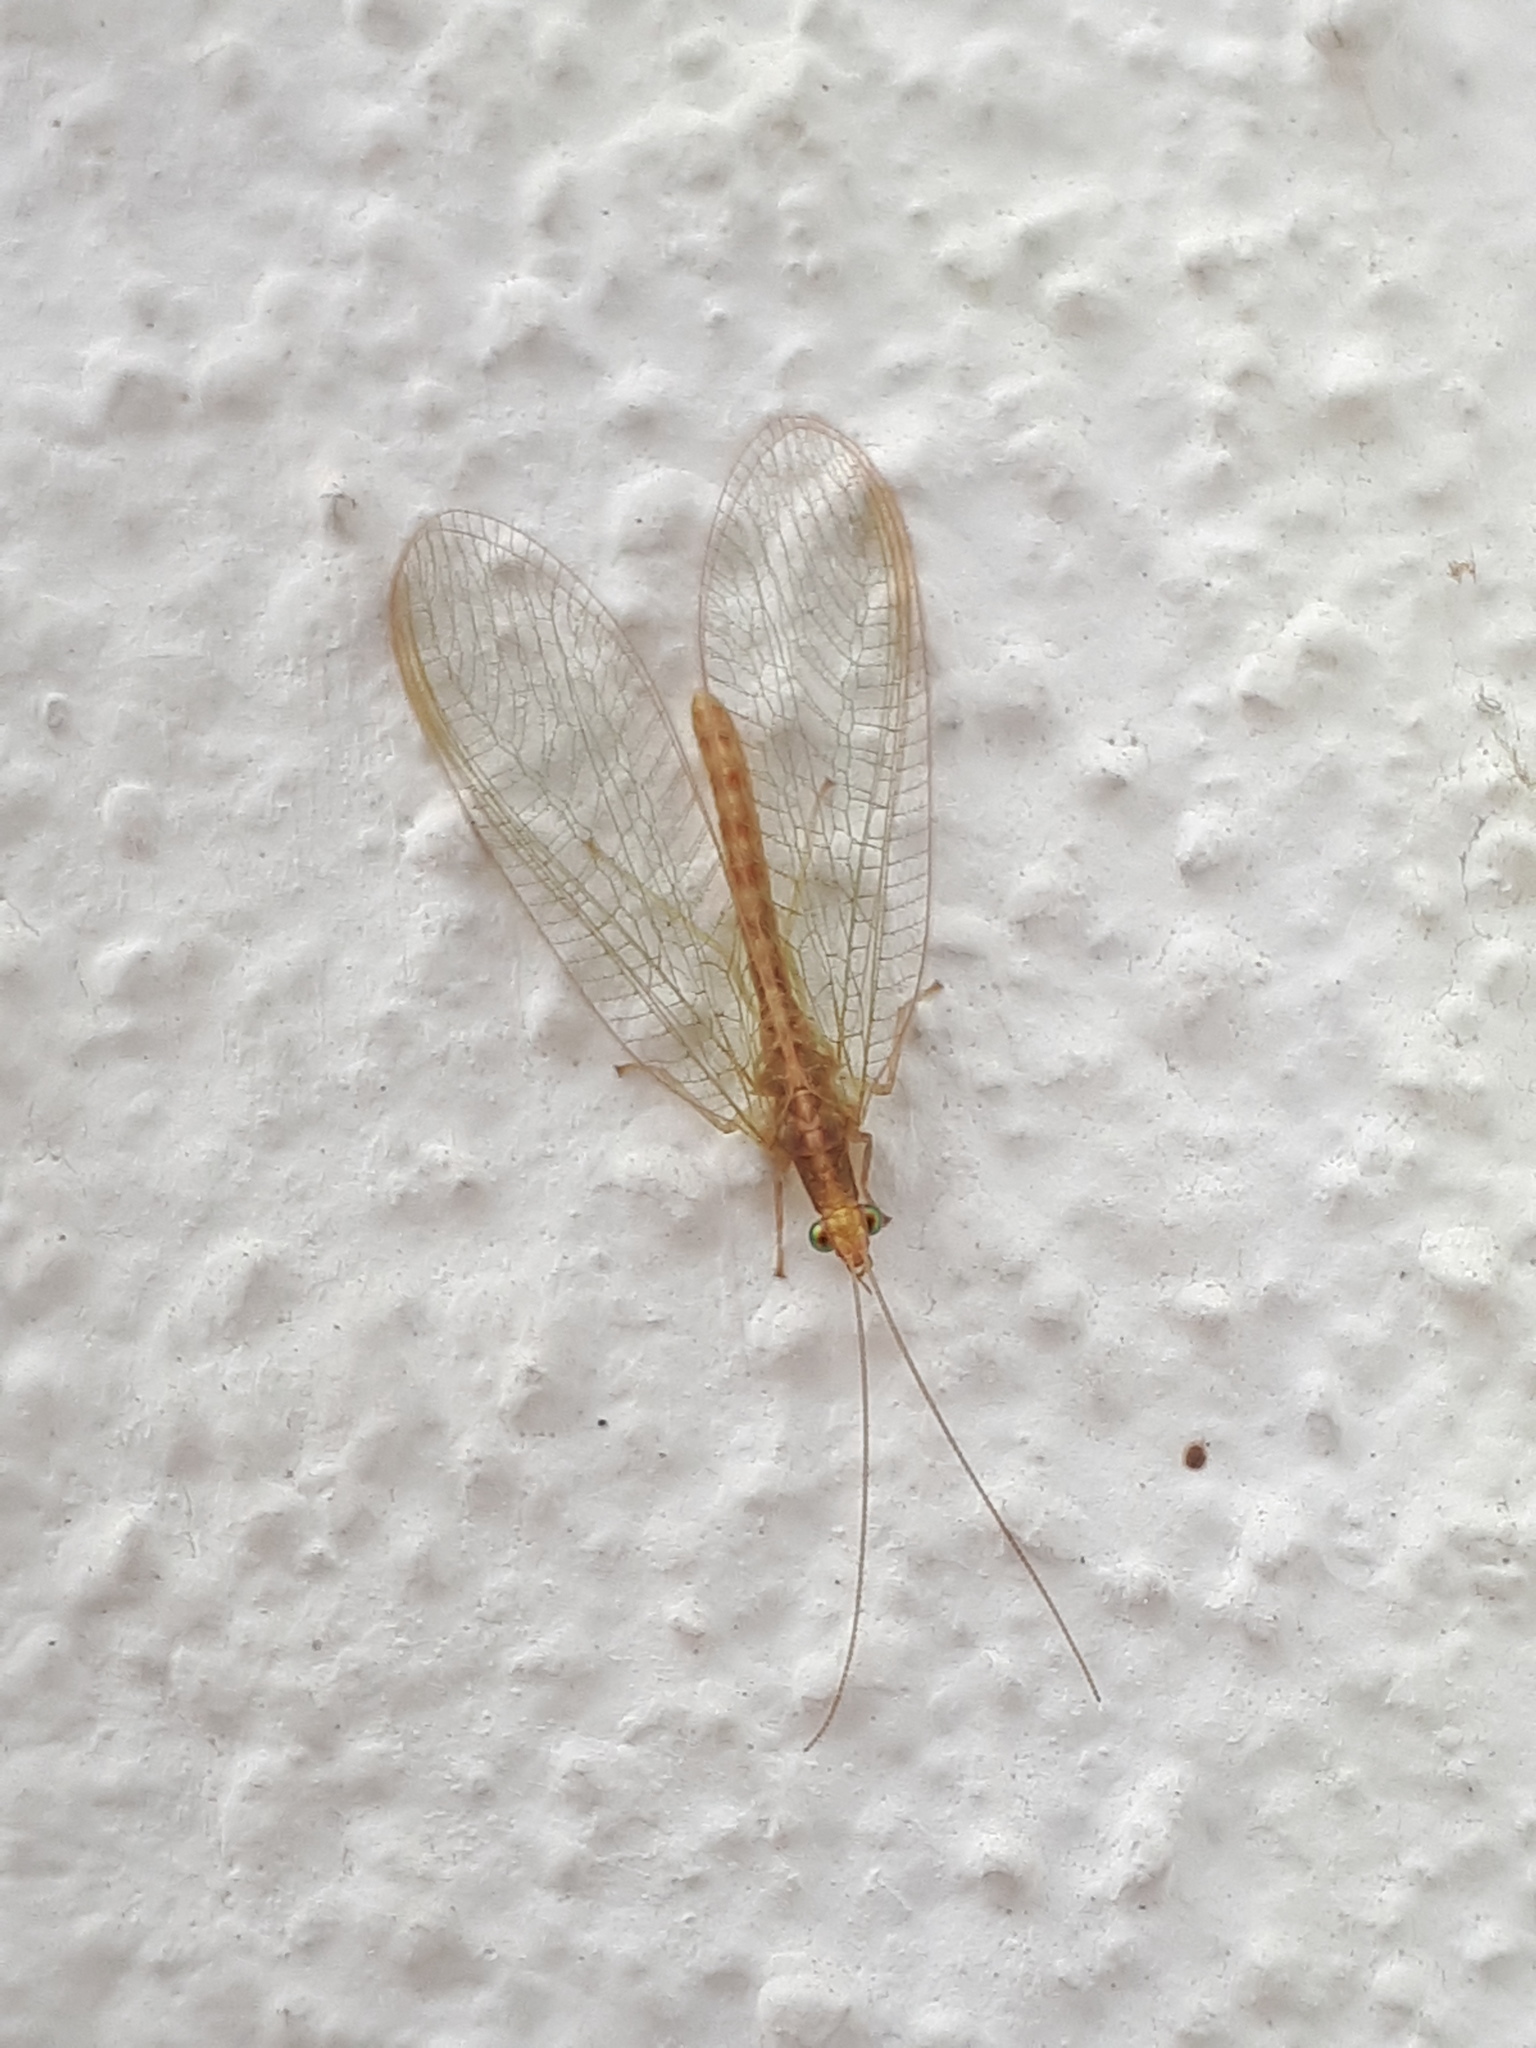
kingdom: Animalia
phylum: Arthropoda
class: Insecta
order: Neuroptera
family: Chrysopidae
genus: Chrysoperla
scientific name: Chrysoperla
